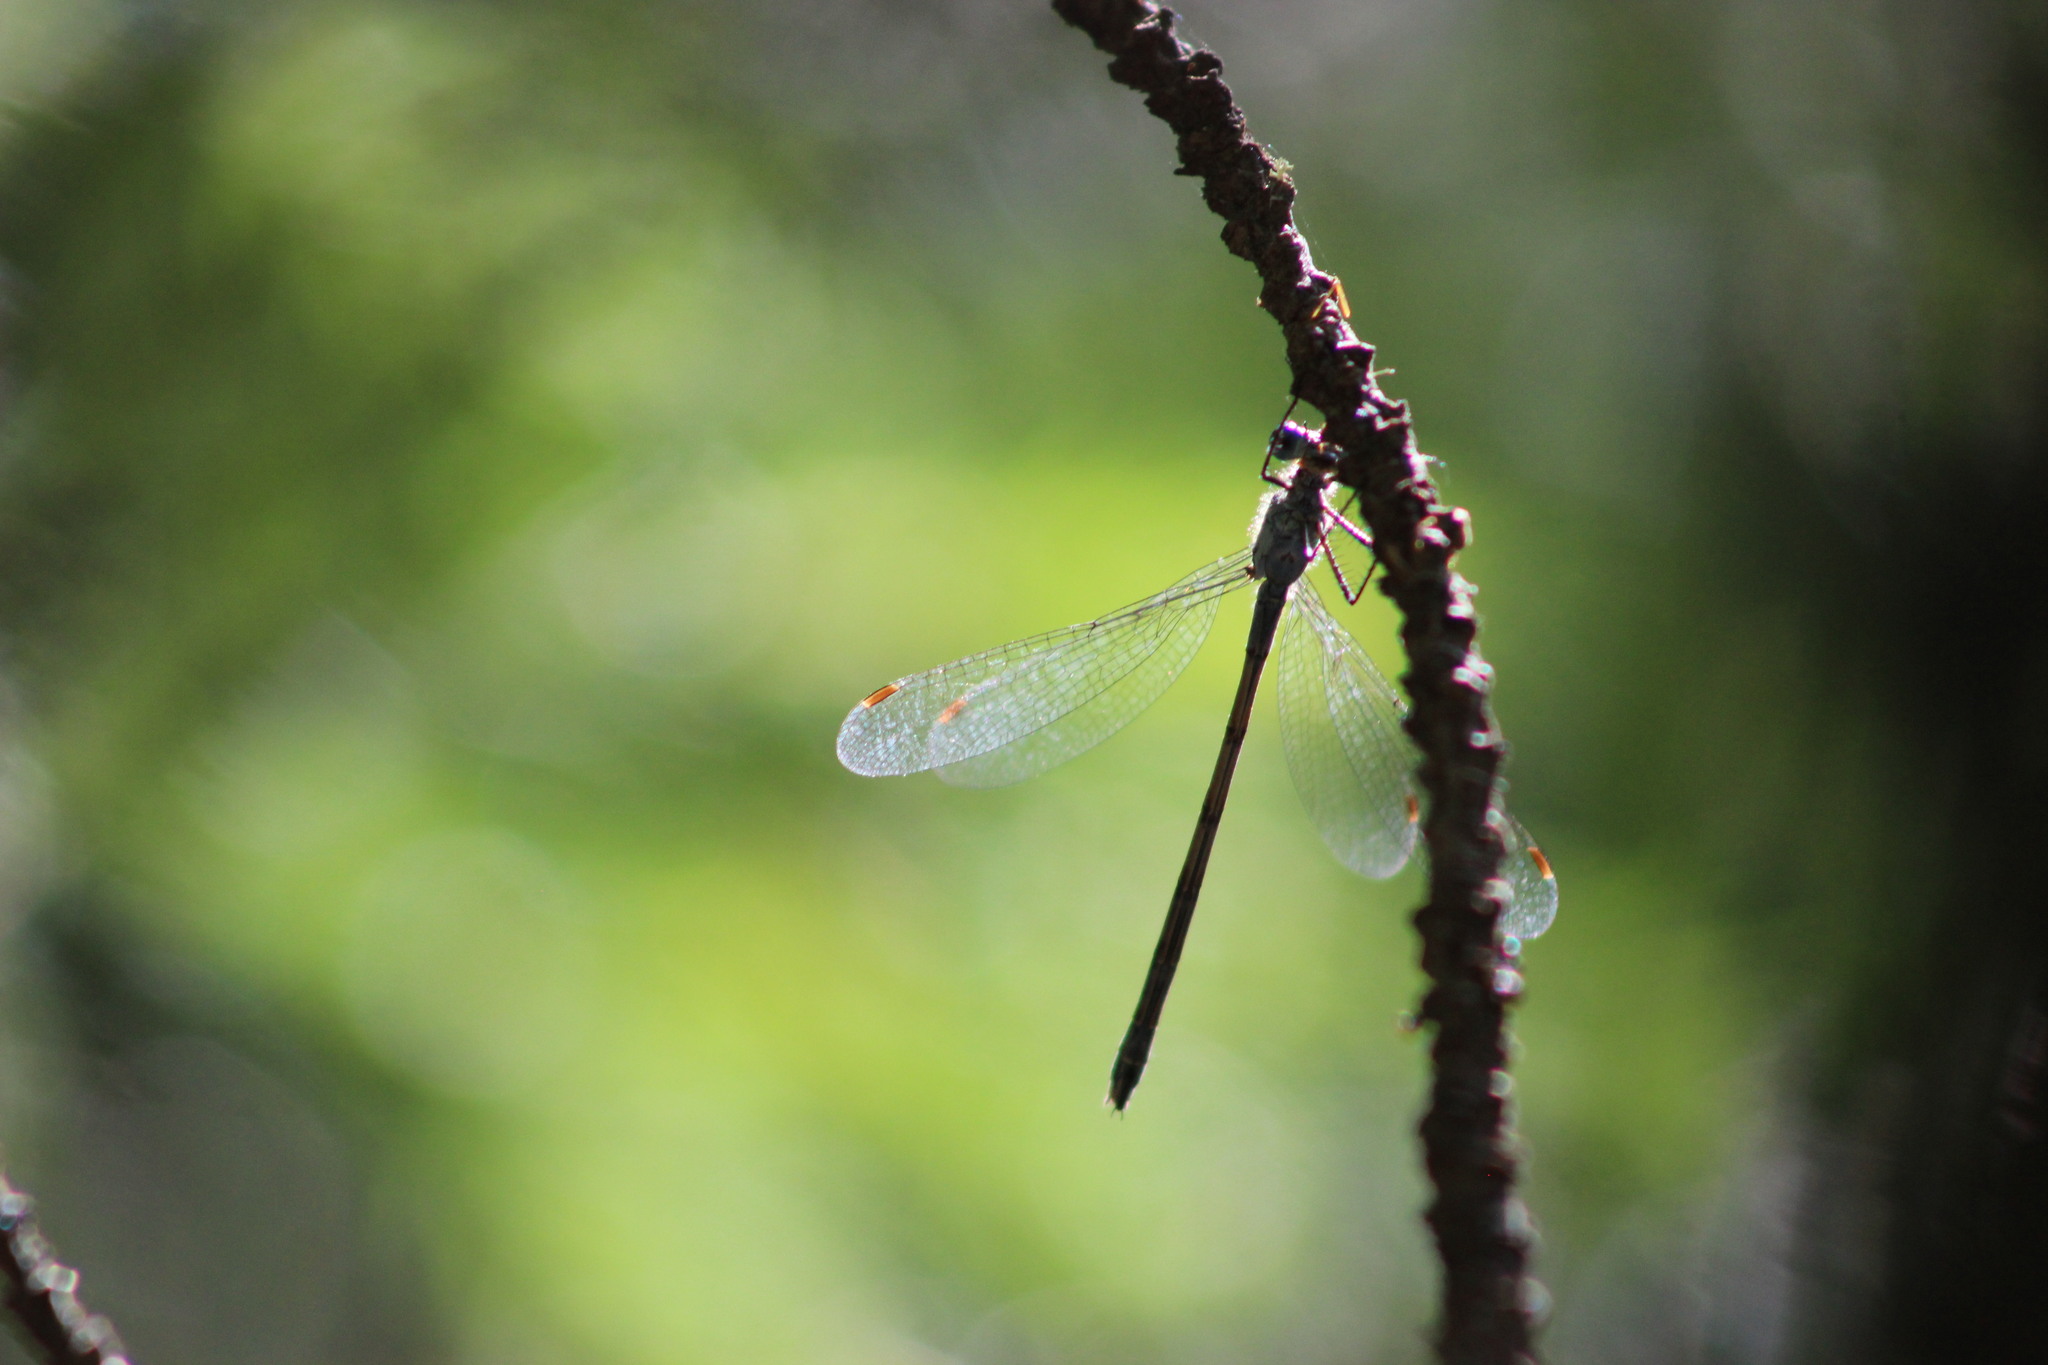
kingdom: Animalia
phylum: Arthropoda
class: Insecta
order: Odonata
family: Lestidae
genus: Lestes
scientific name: Lestes virens
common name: Small emerald spreadwing
